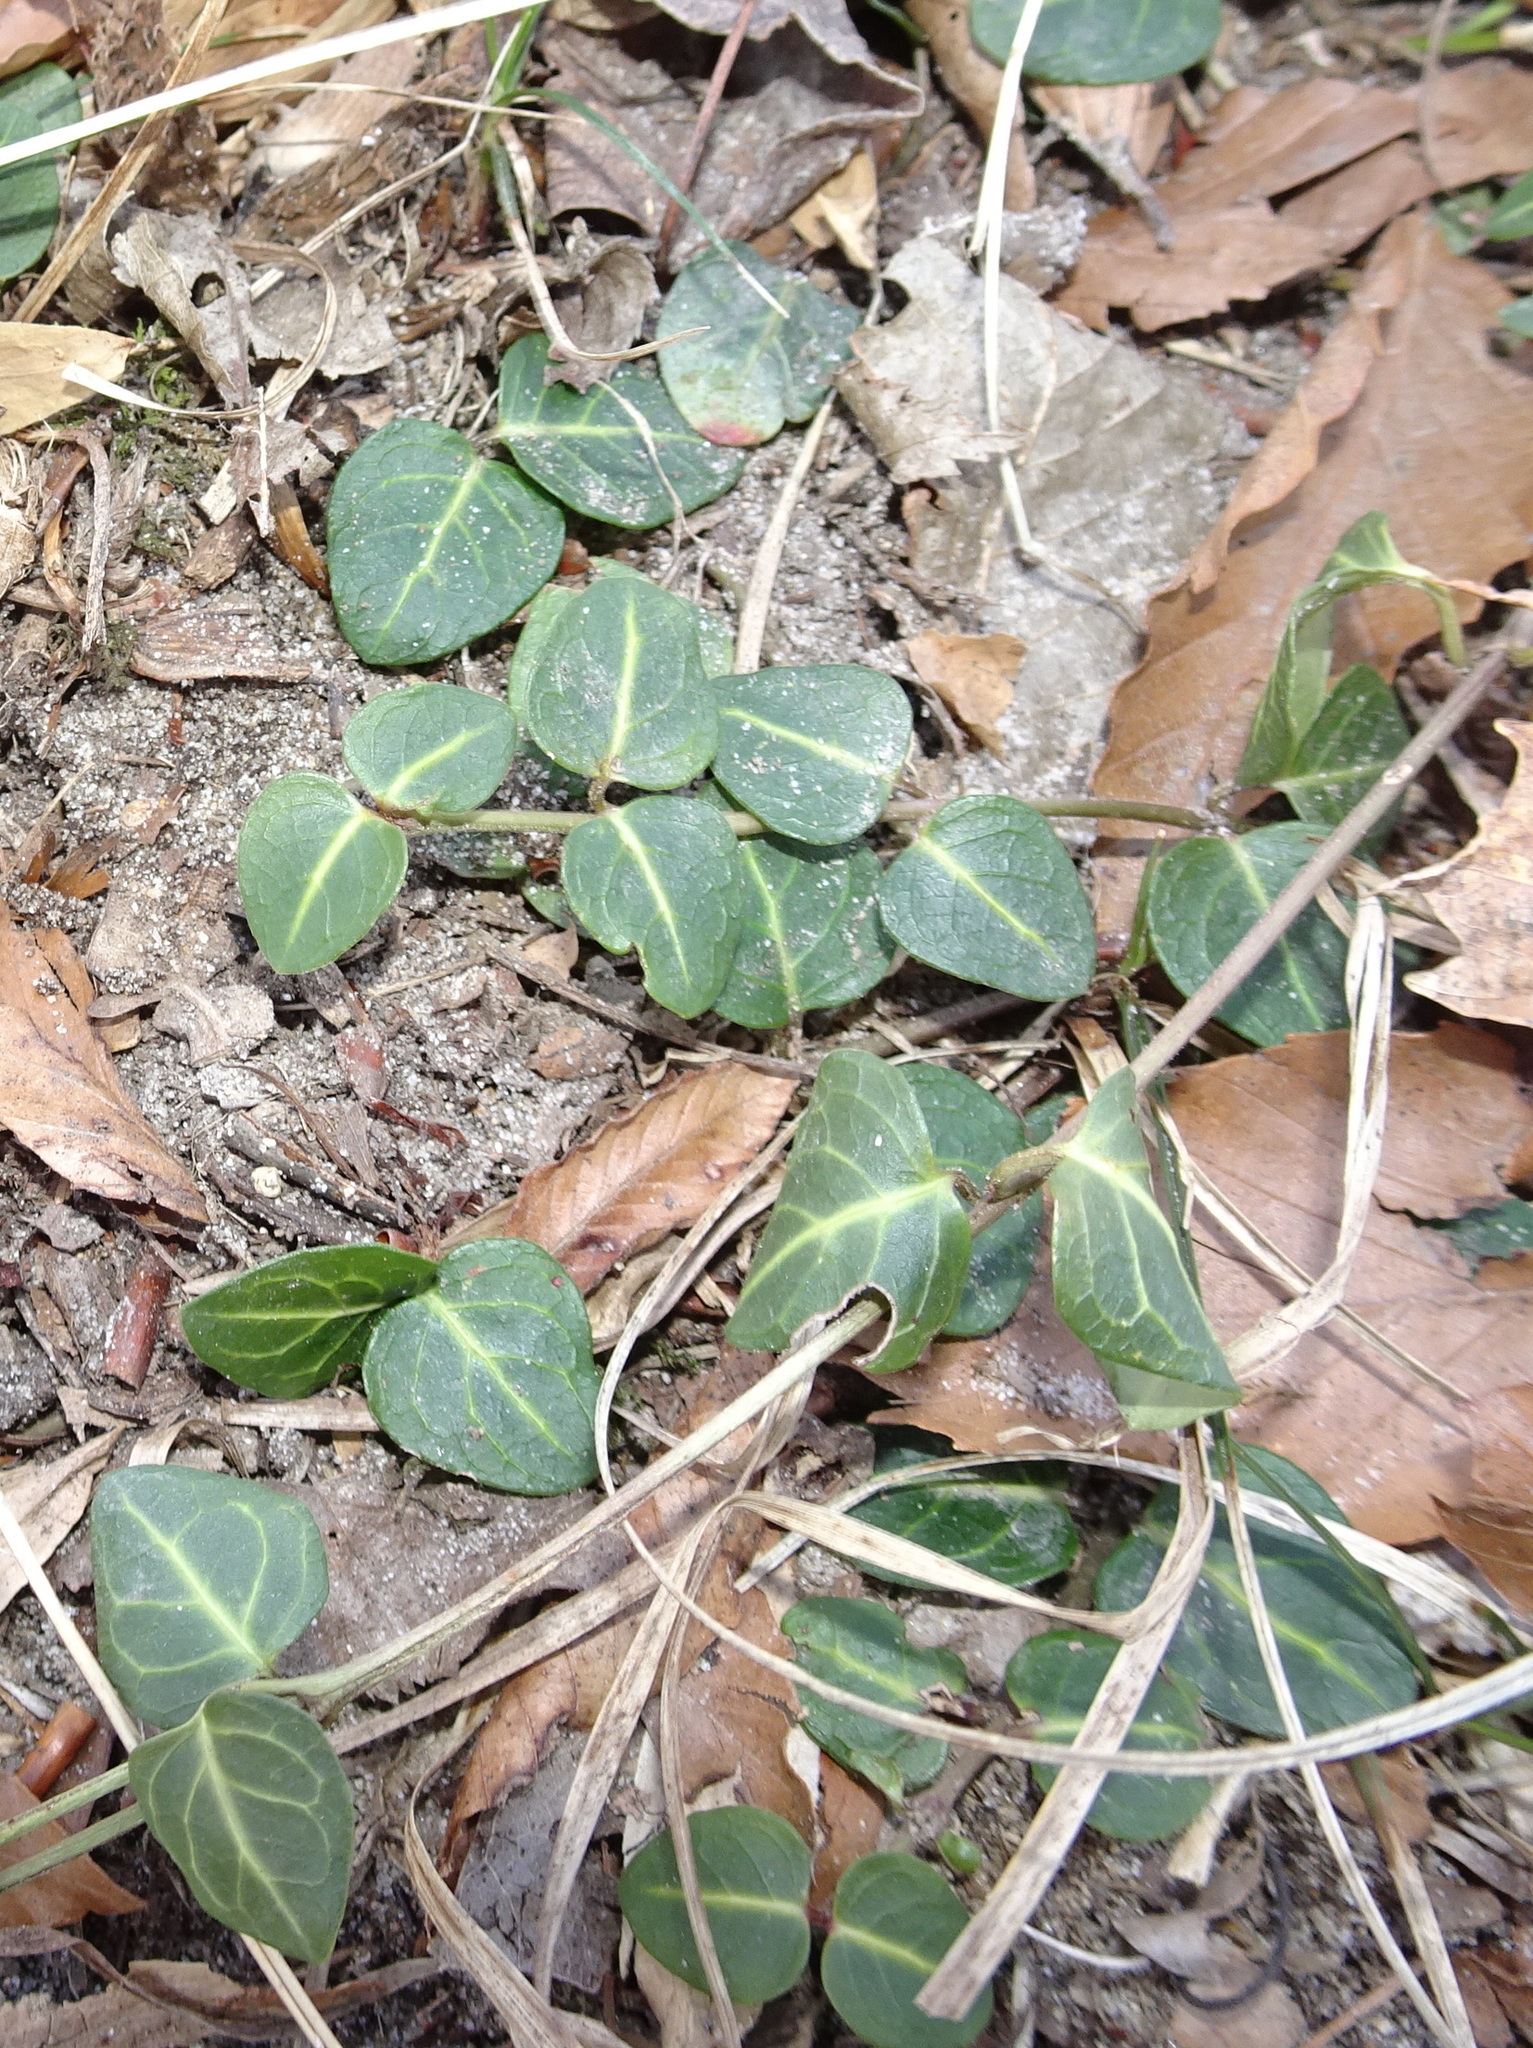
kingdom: Plantae
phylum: Tracheophyta
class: Magnoliopsida
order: Gentianales
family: Rubiaceae
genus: Mitchella
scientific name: Mitchella repens
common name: Partridge-berry
